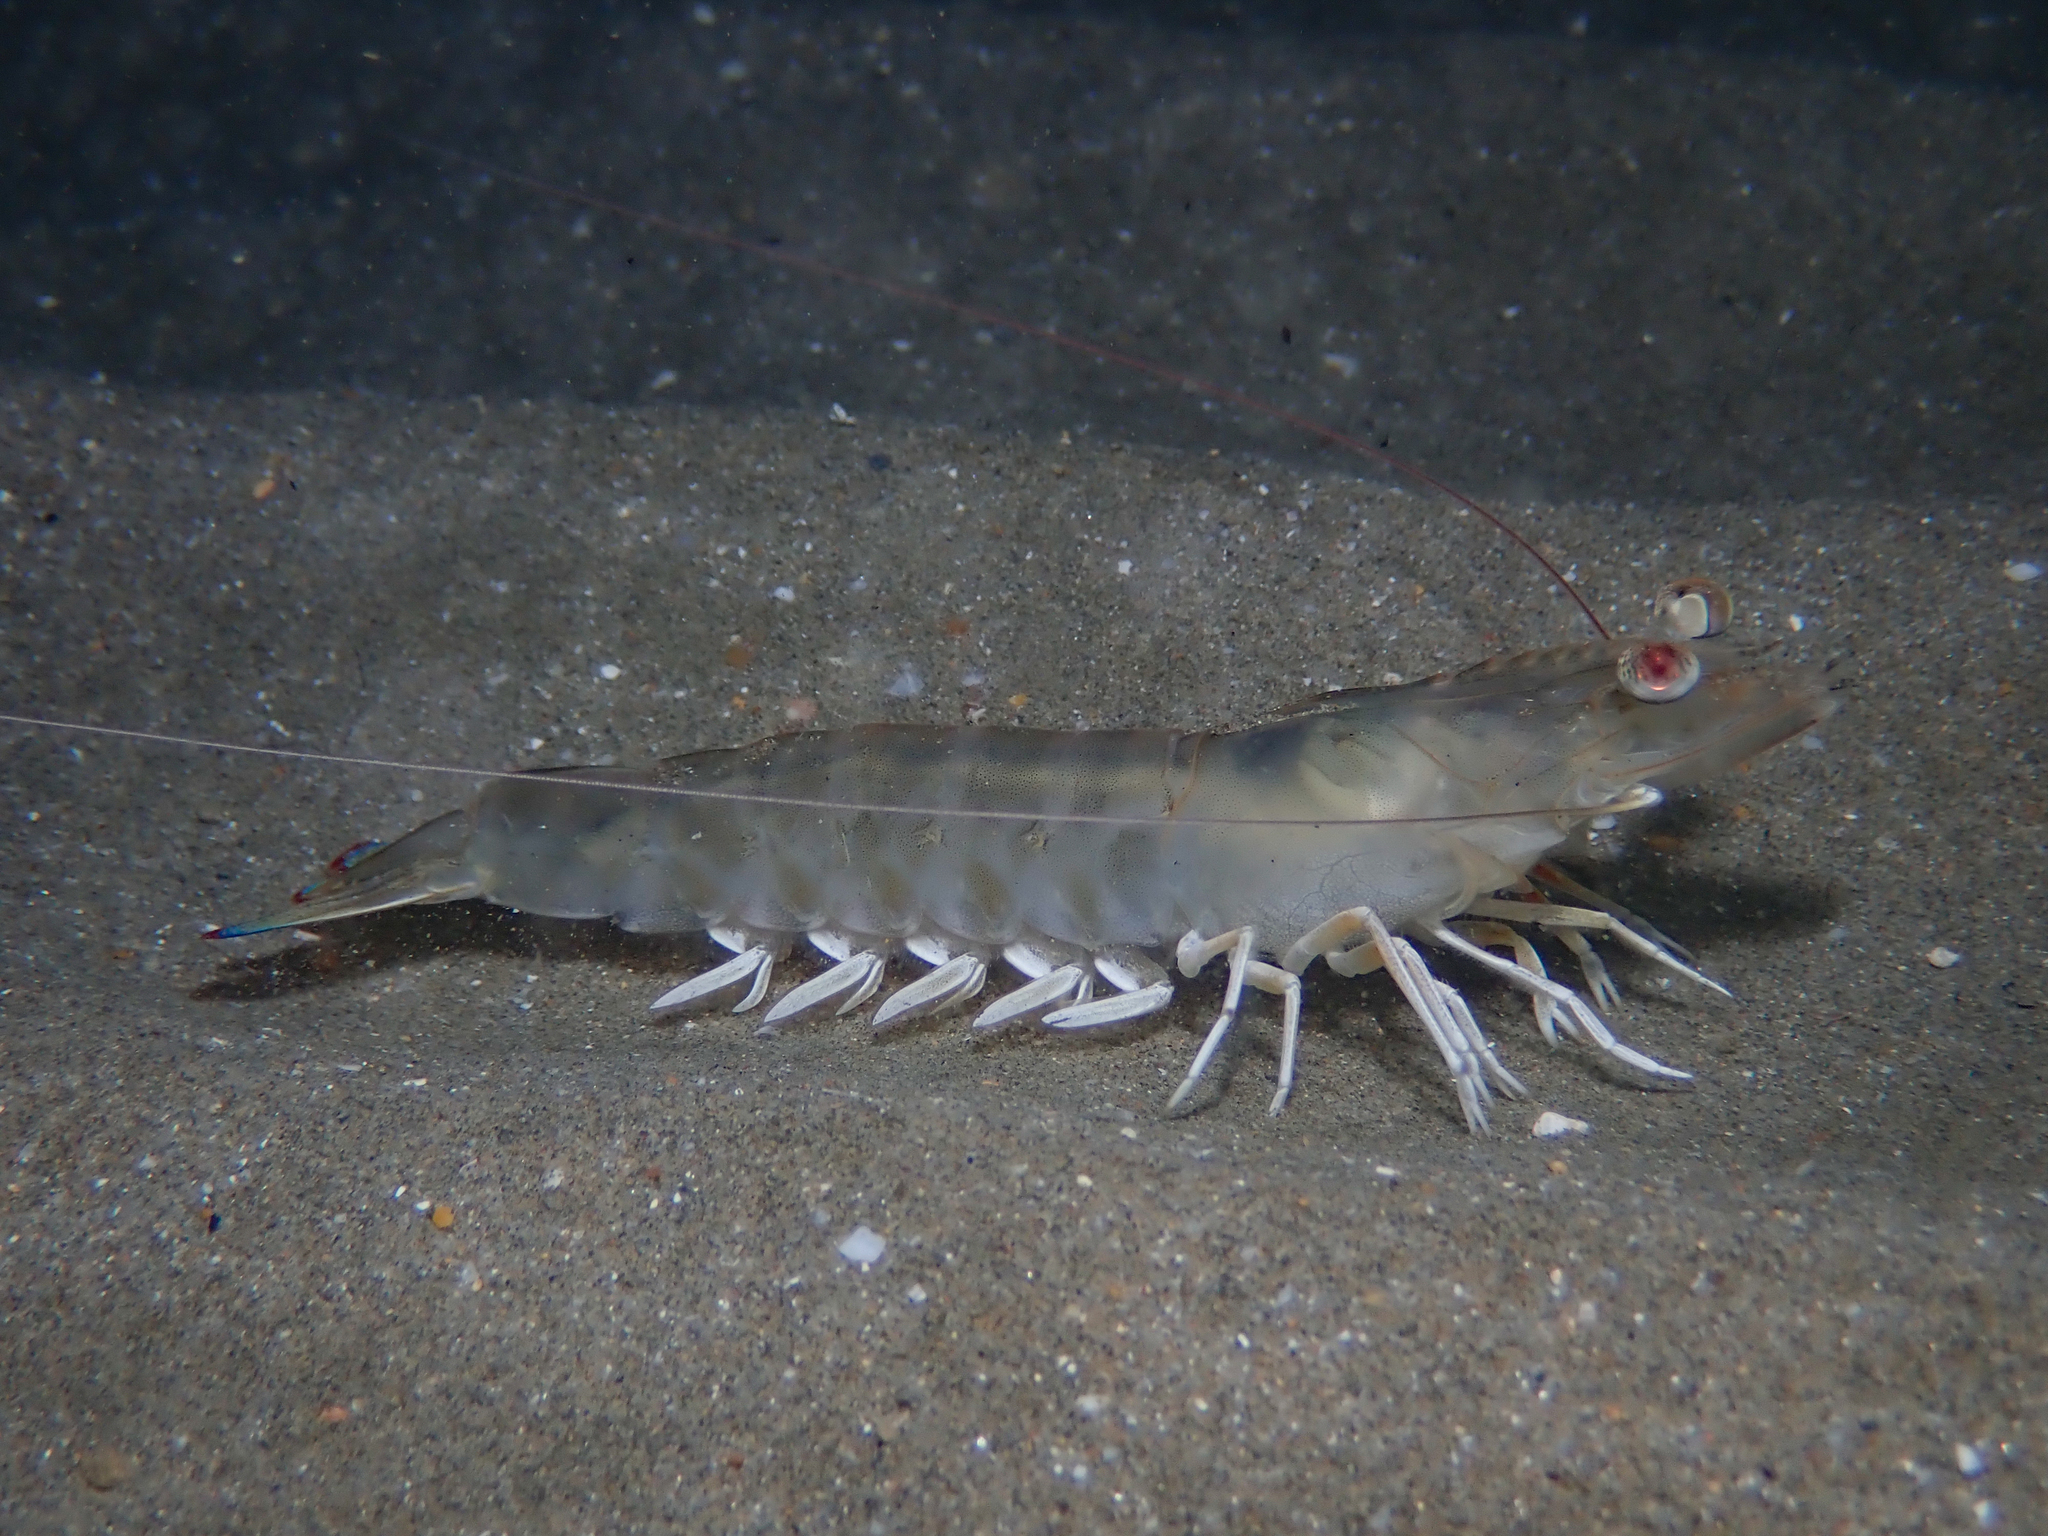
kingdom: Animalia
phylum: Arthropoda
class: Malacostraca
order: Decapoda
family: Penaeidae
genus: Penaeus
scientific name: Penaeus kerathurus
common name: Caramote prawn
